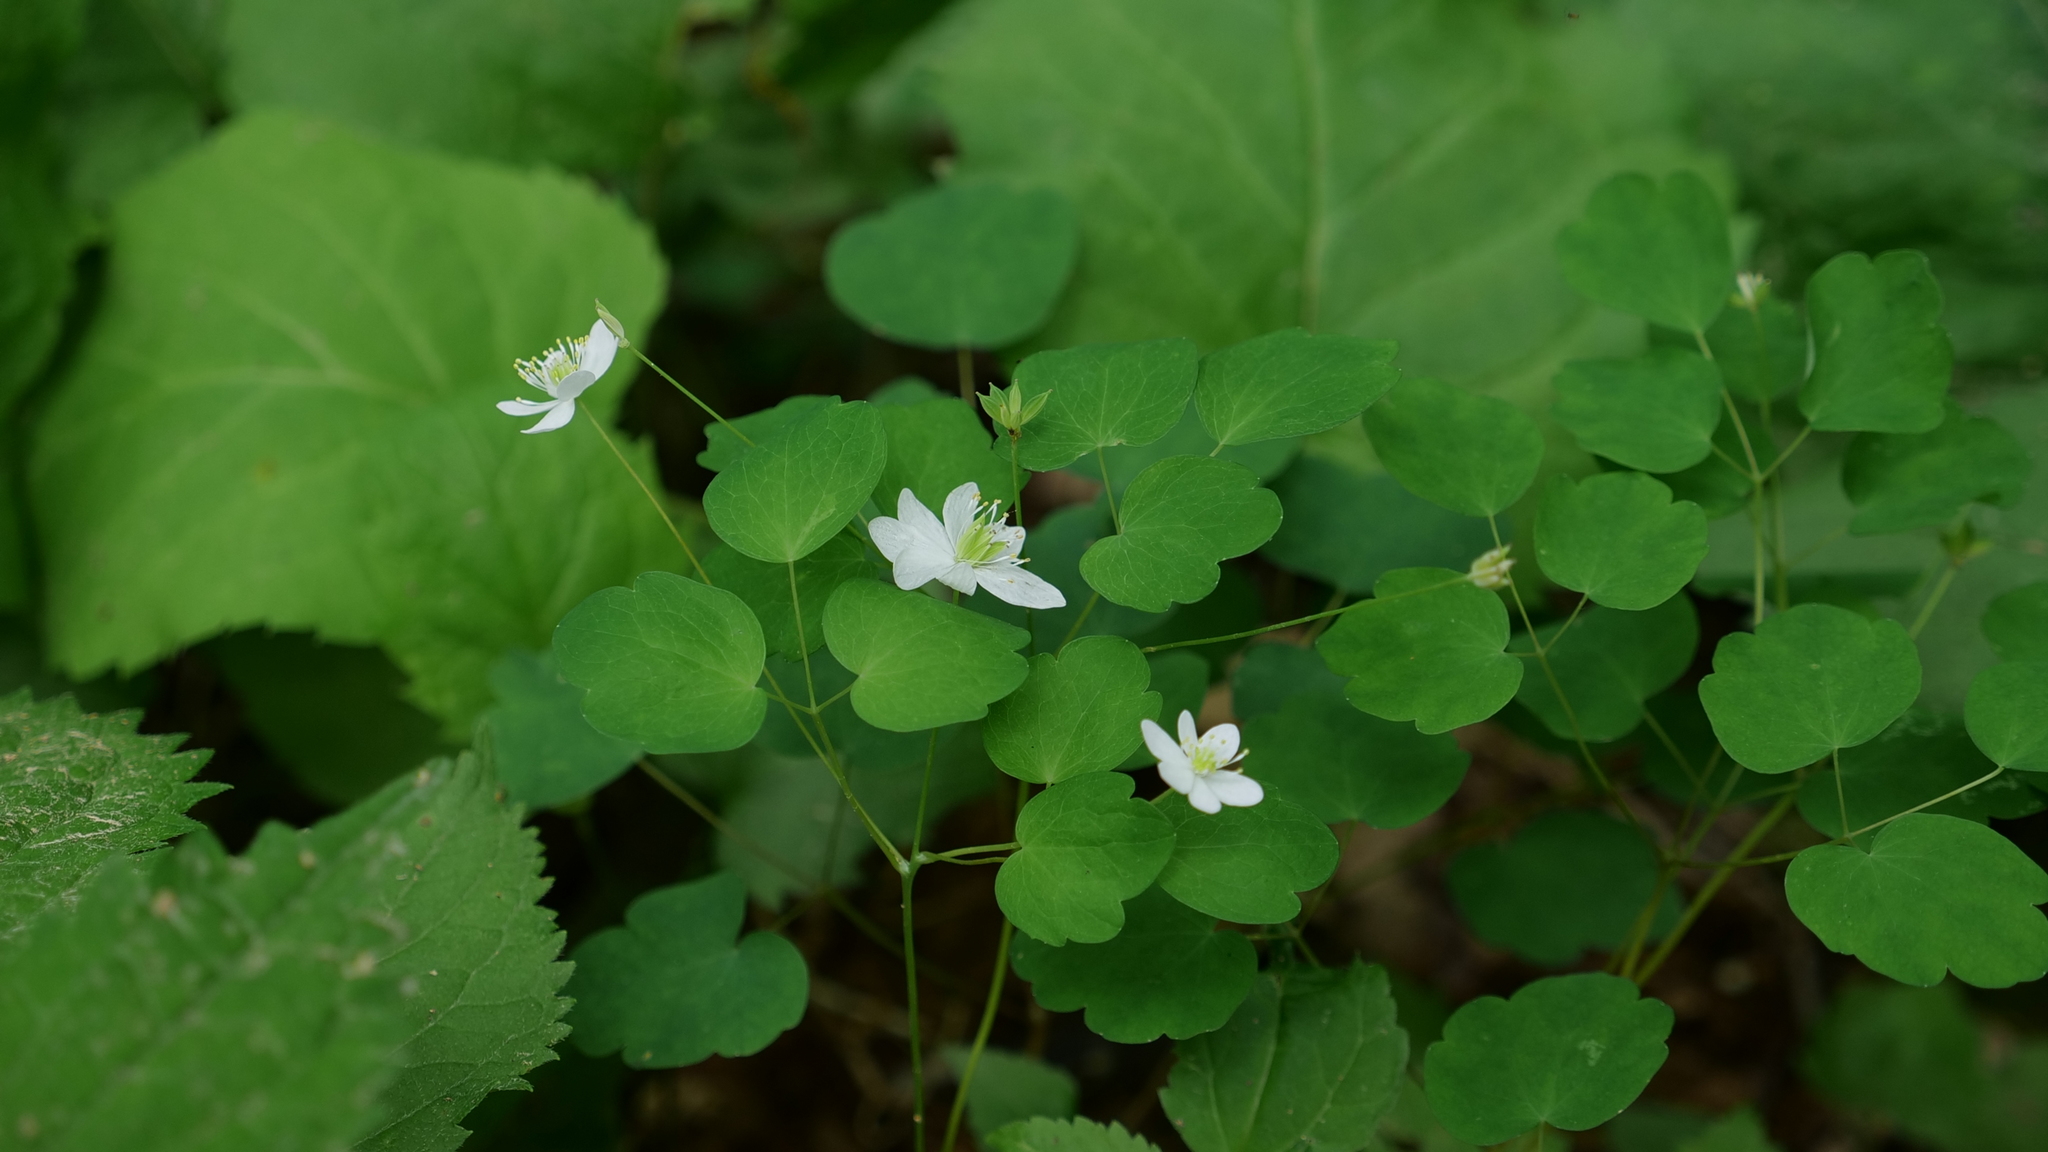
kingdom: Plantae
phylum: Tracheophyta
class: Magnoliopsida
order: Ranunculales
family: Ranunculaceae
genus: Thalictrum
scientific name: Thalictrum thalictroides
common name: Rue-anemone
